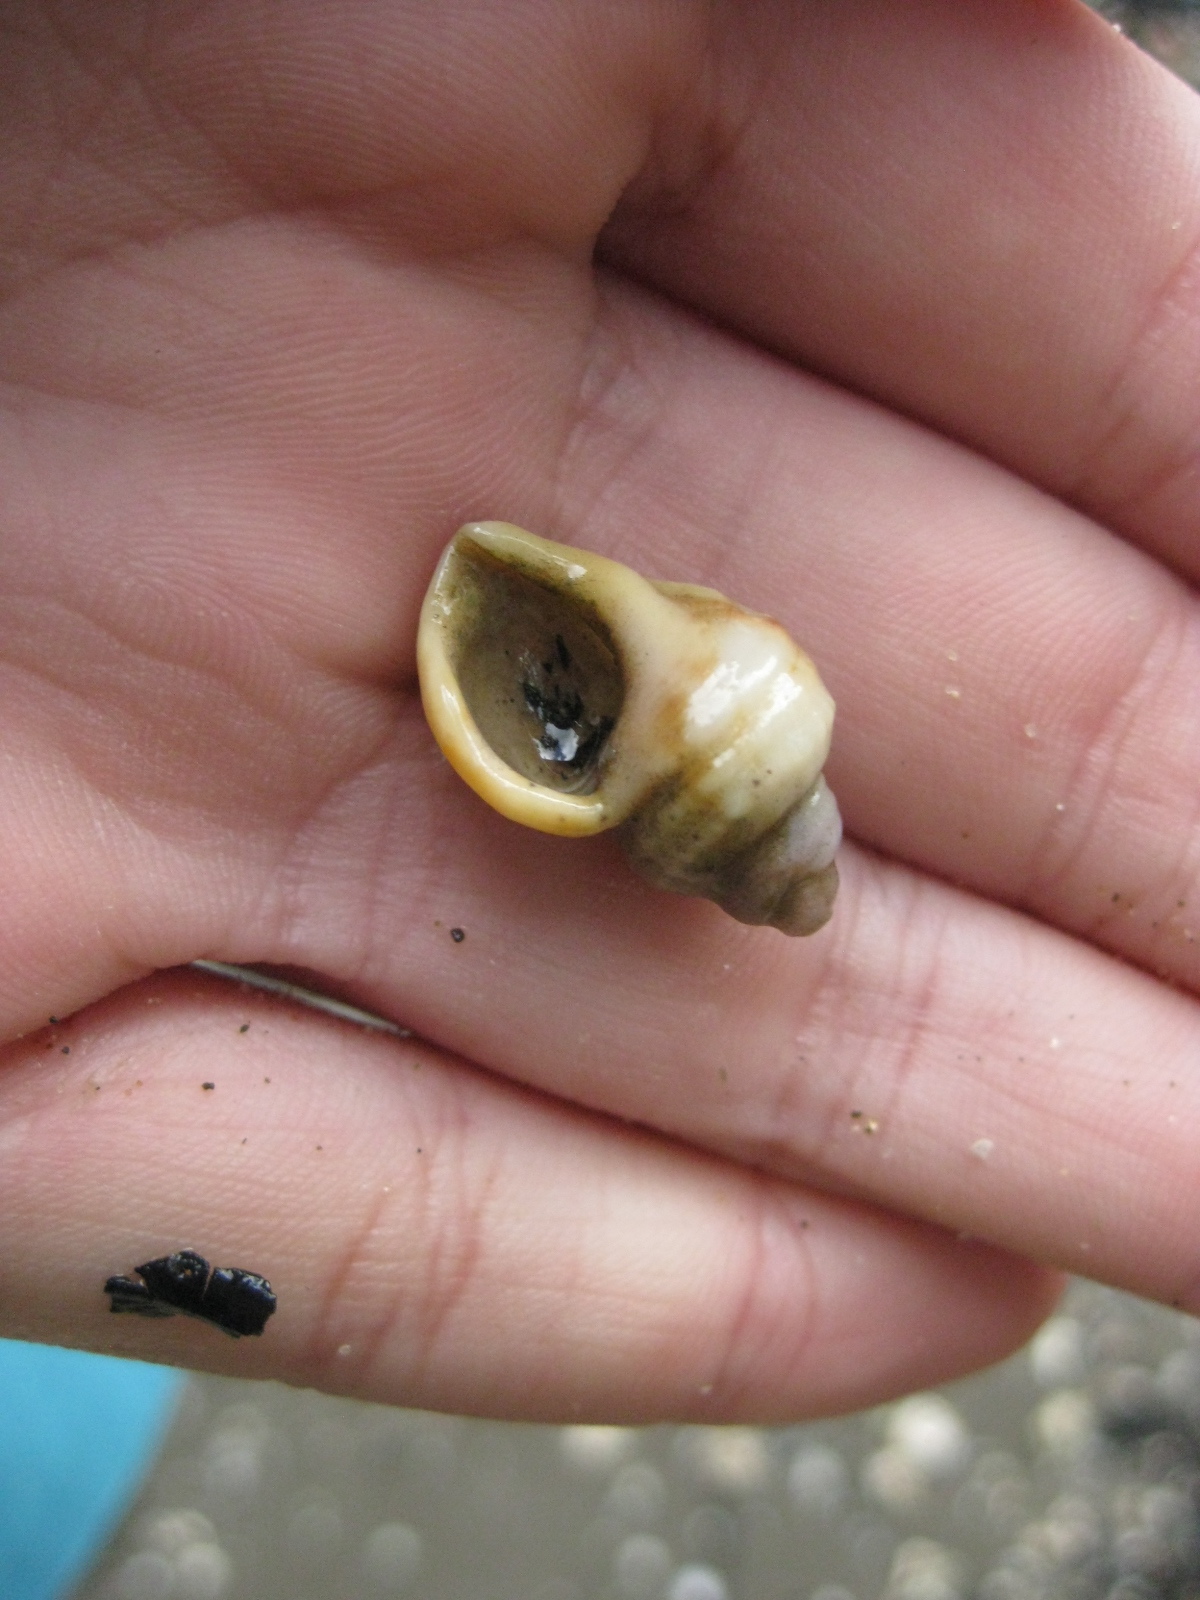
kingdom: Animalia
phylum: Mollusca
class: Gastropoda
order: Littorinimorpha
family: Struthiolariidae
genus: Pelicaria
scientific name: Pelicaria vermis
